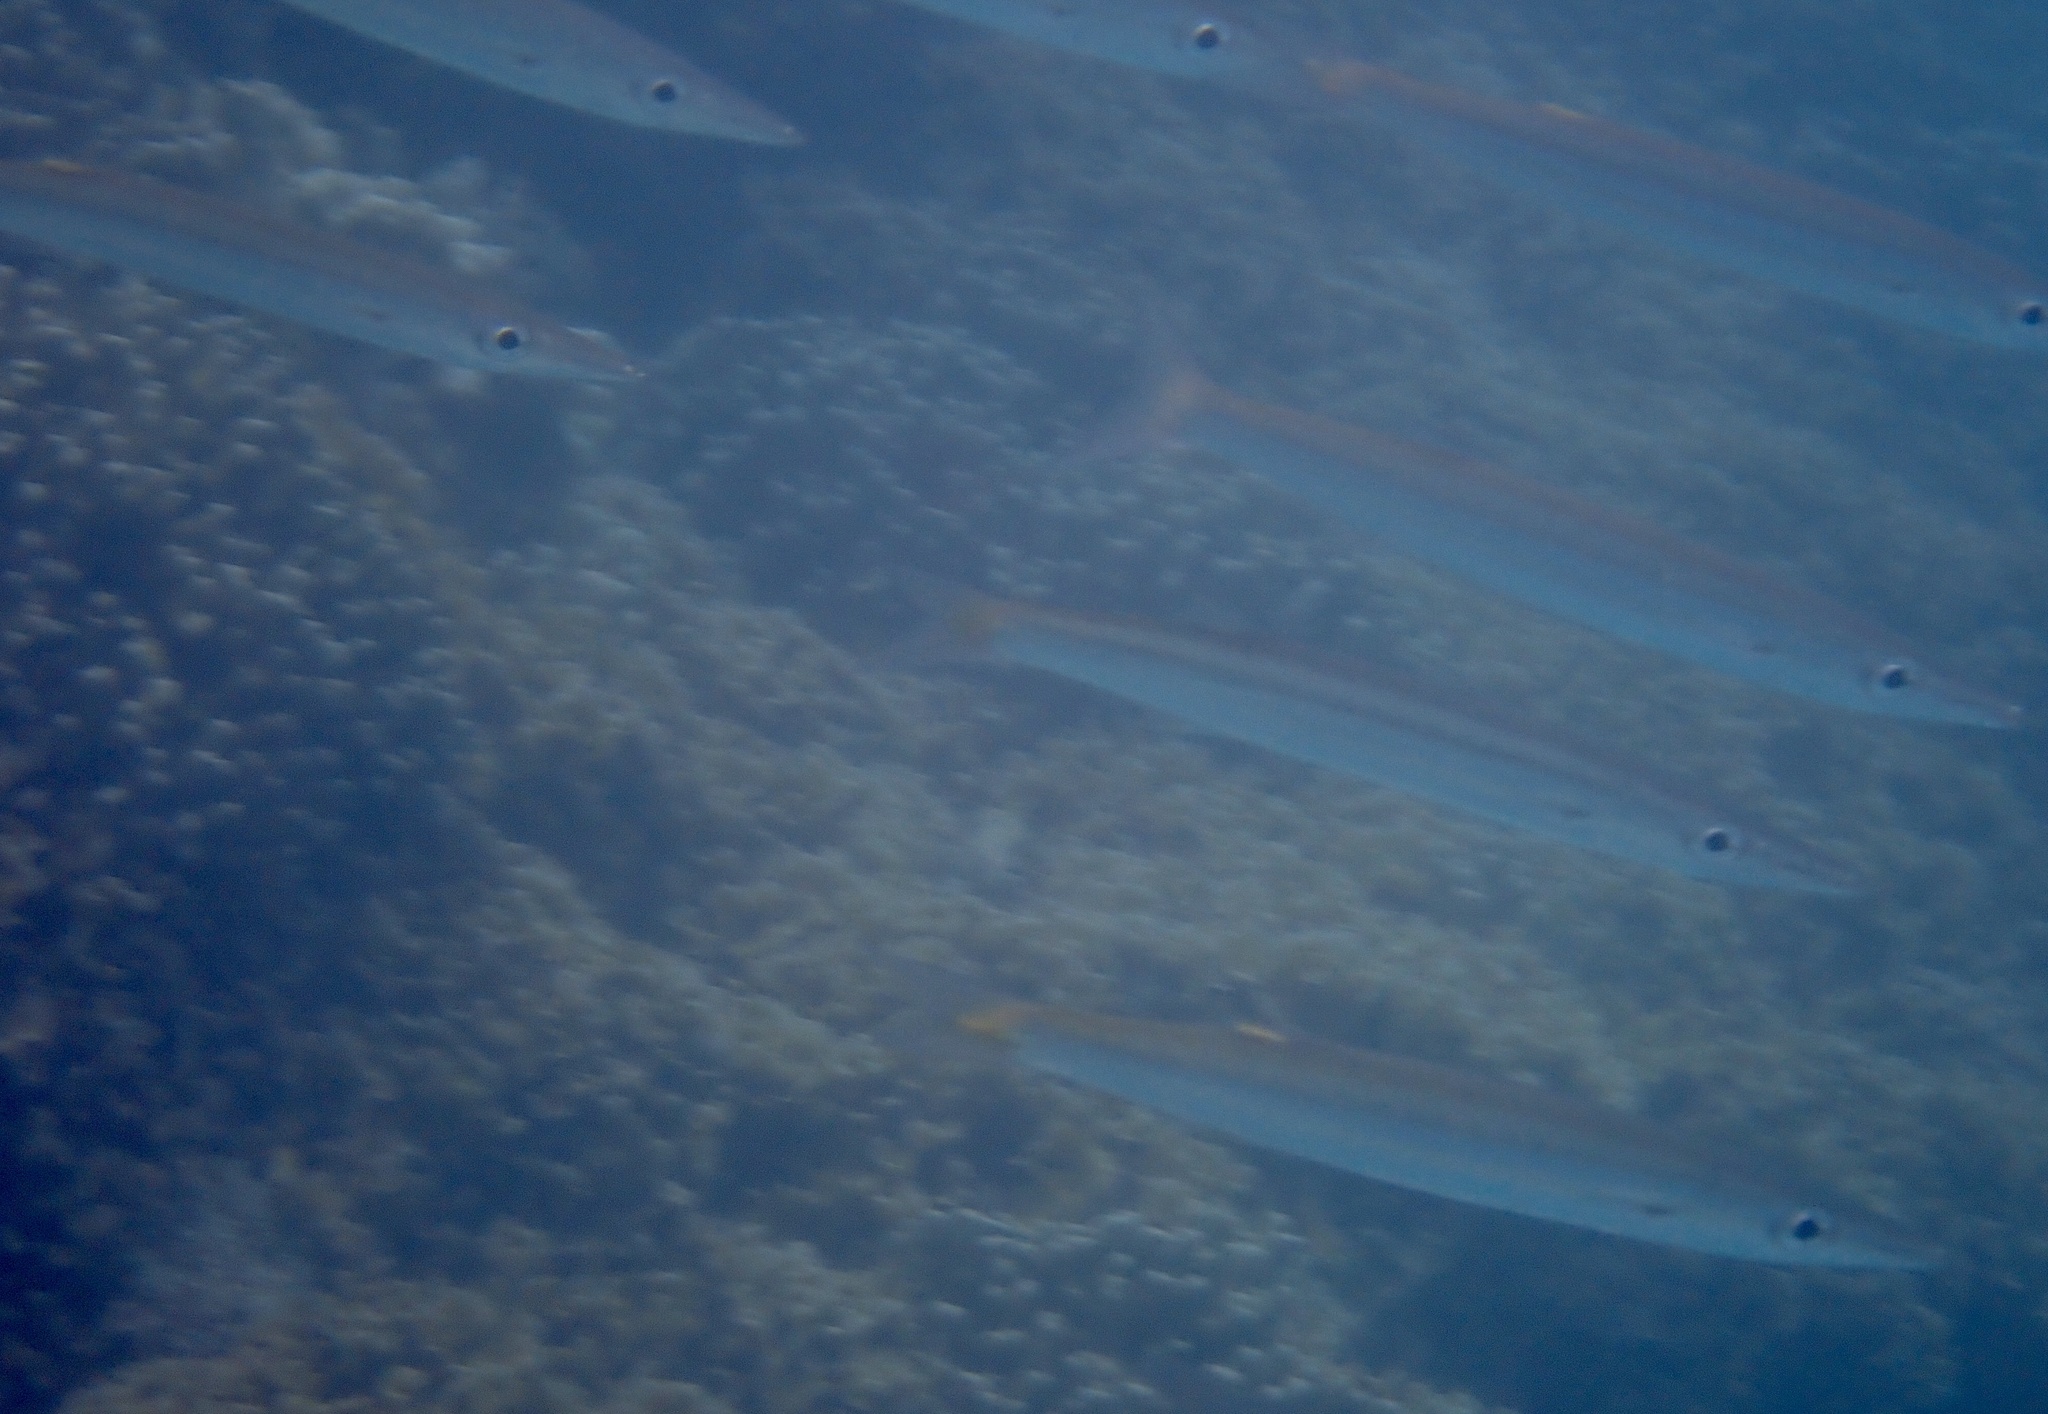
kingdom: Animalia
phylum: Chordata
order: Perciformes
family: Sphyraenidae
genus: Sphyraena
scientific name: Sphyraena obtusata
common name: Obtuse barracuda
